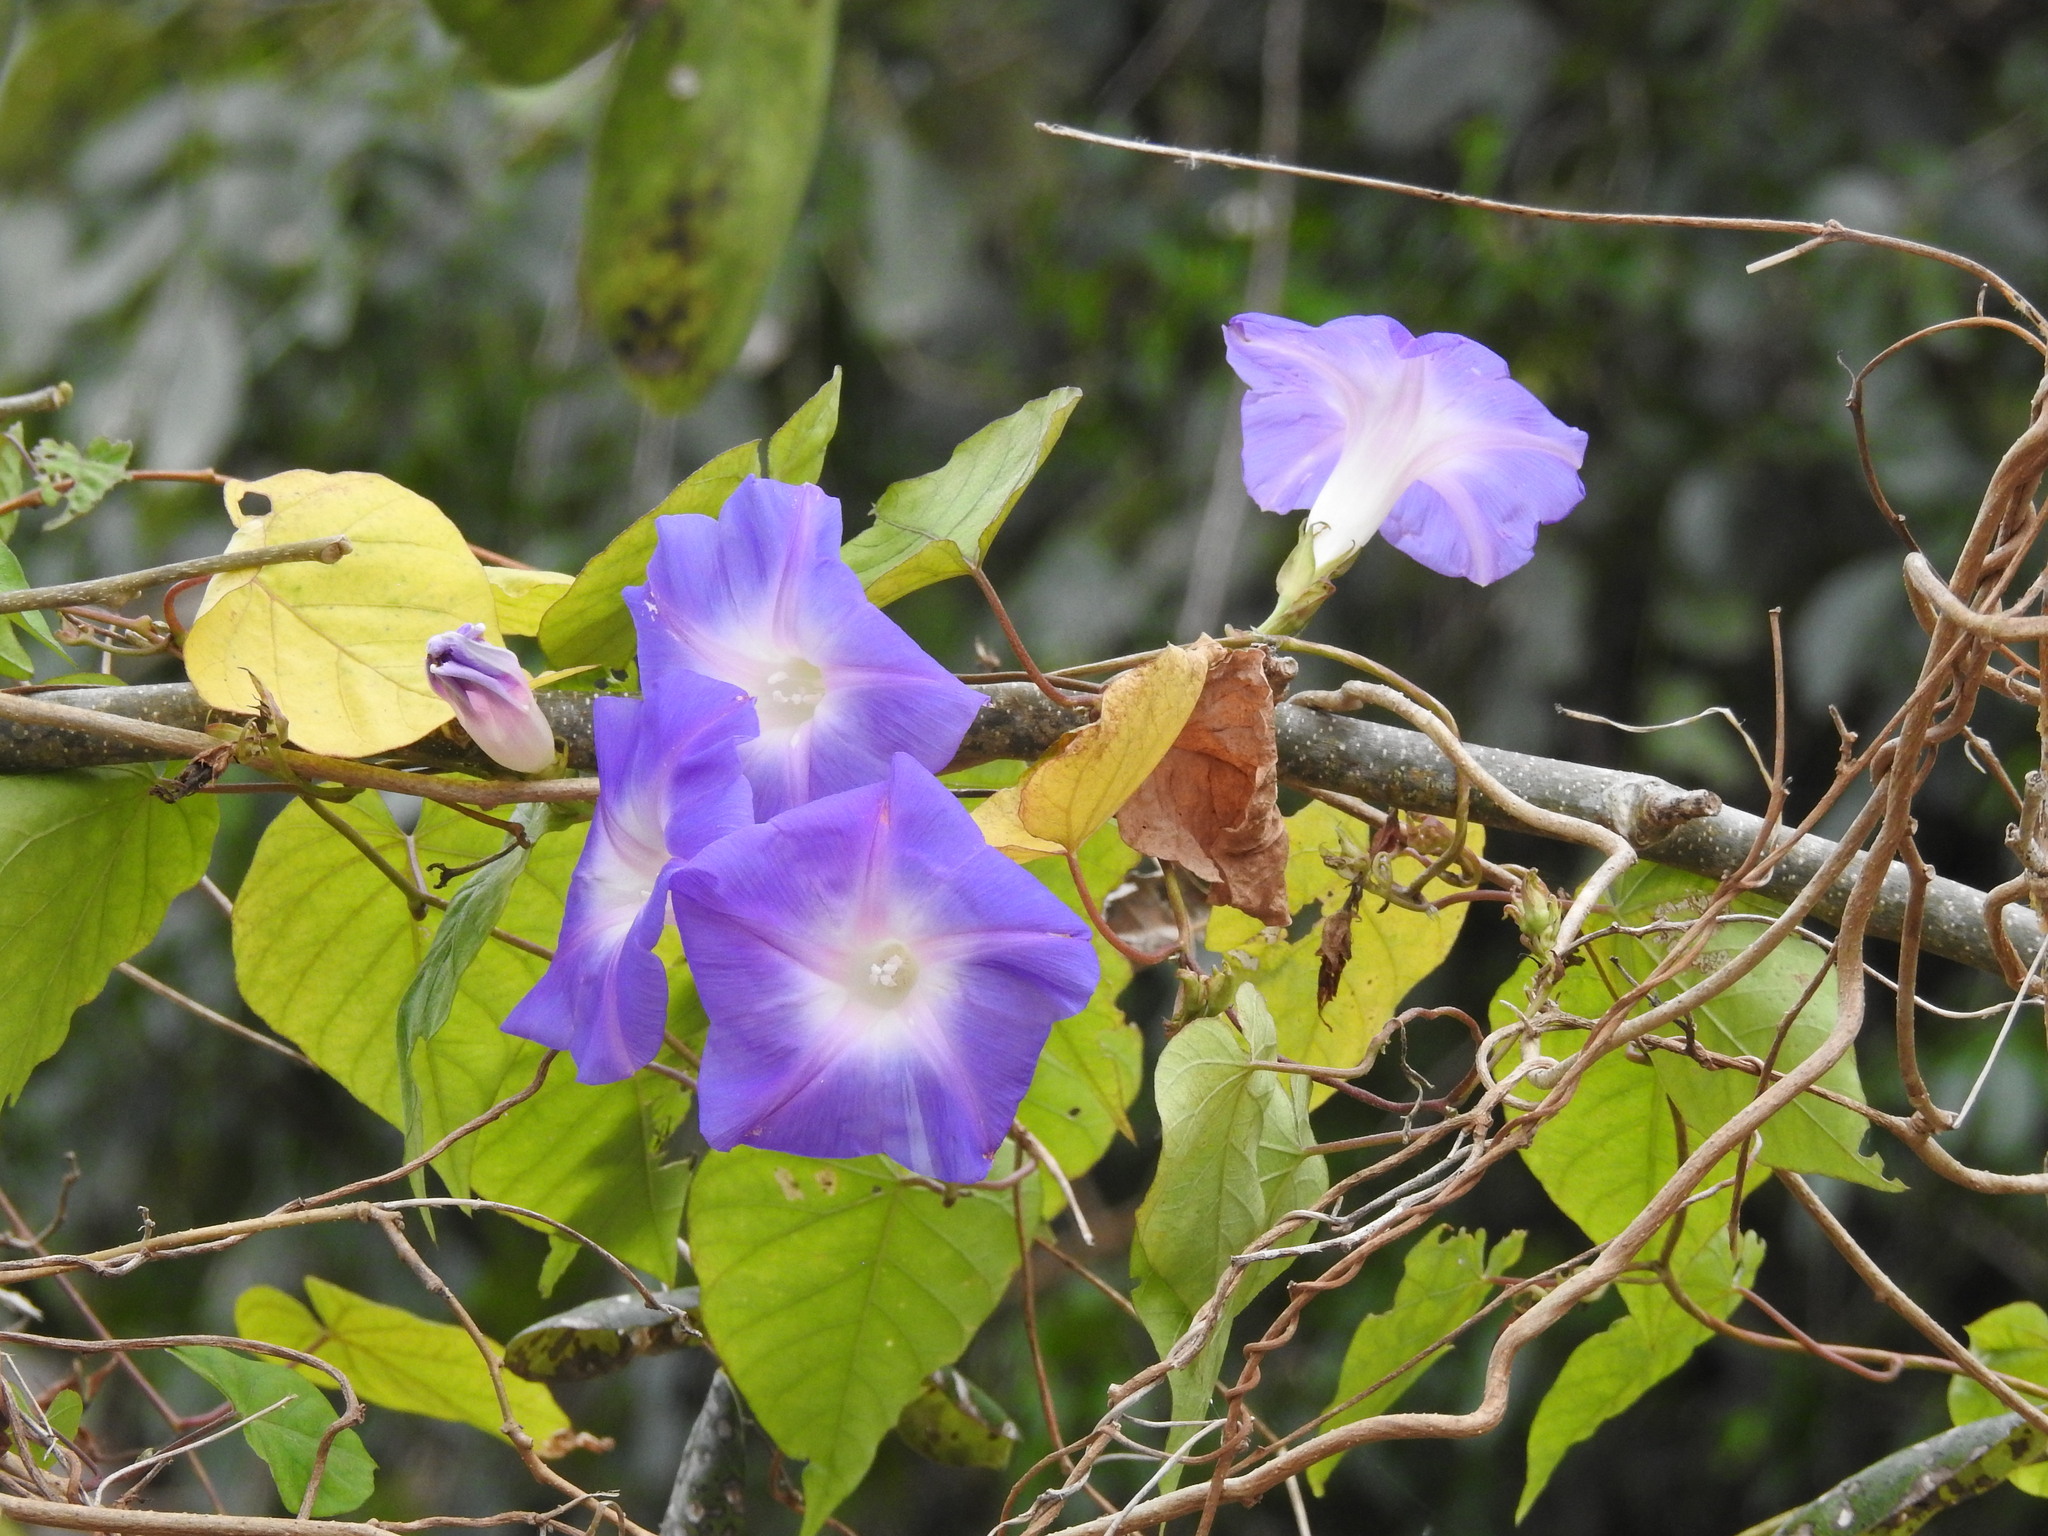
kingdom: Plantae
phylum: Tracheophyta
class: Magnoliopsida
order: Solanales
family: Convolvulaceae
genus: Ipomoea
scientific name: Ipomoea indica
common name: Blue dawnflower
